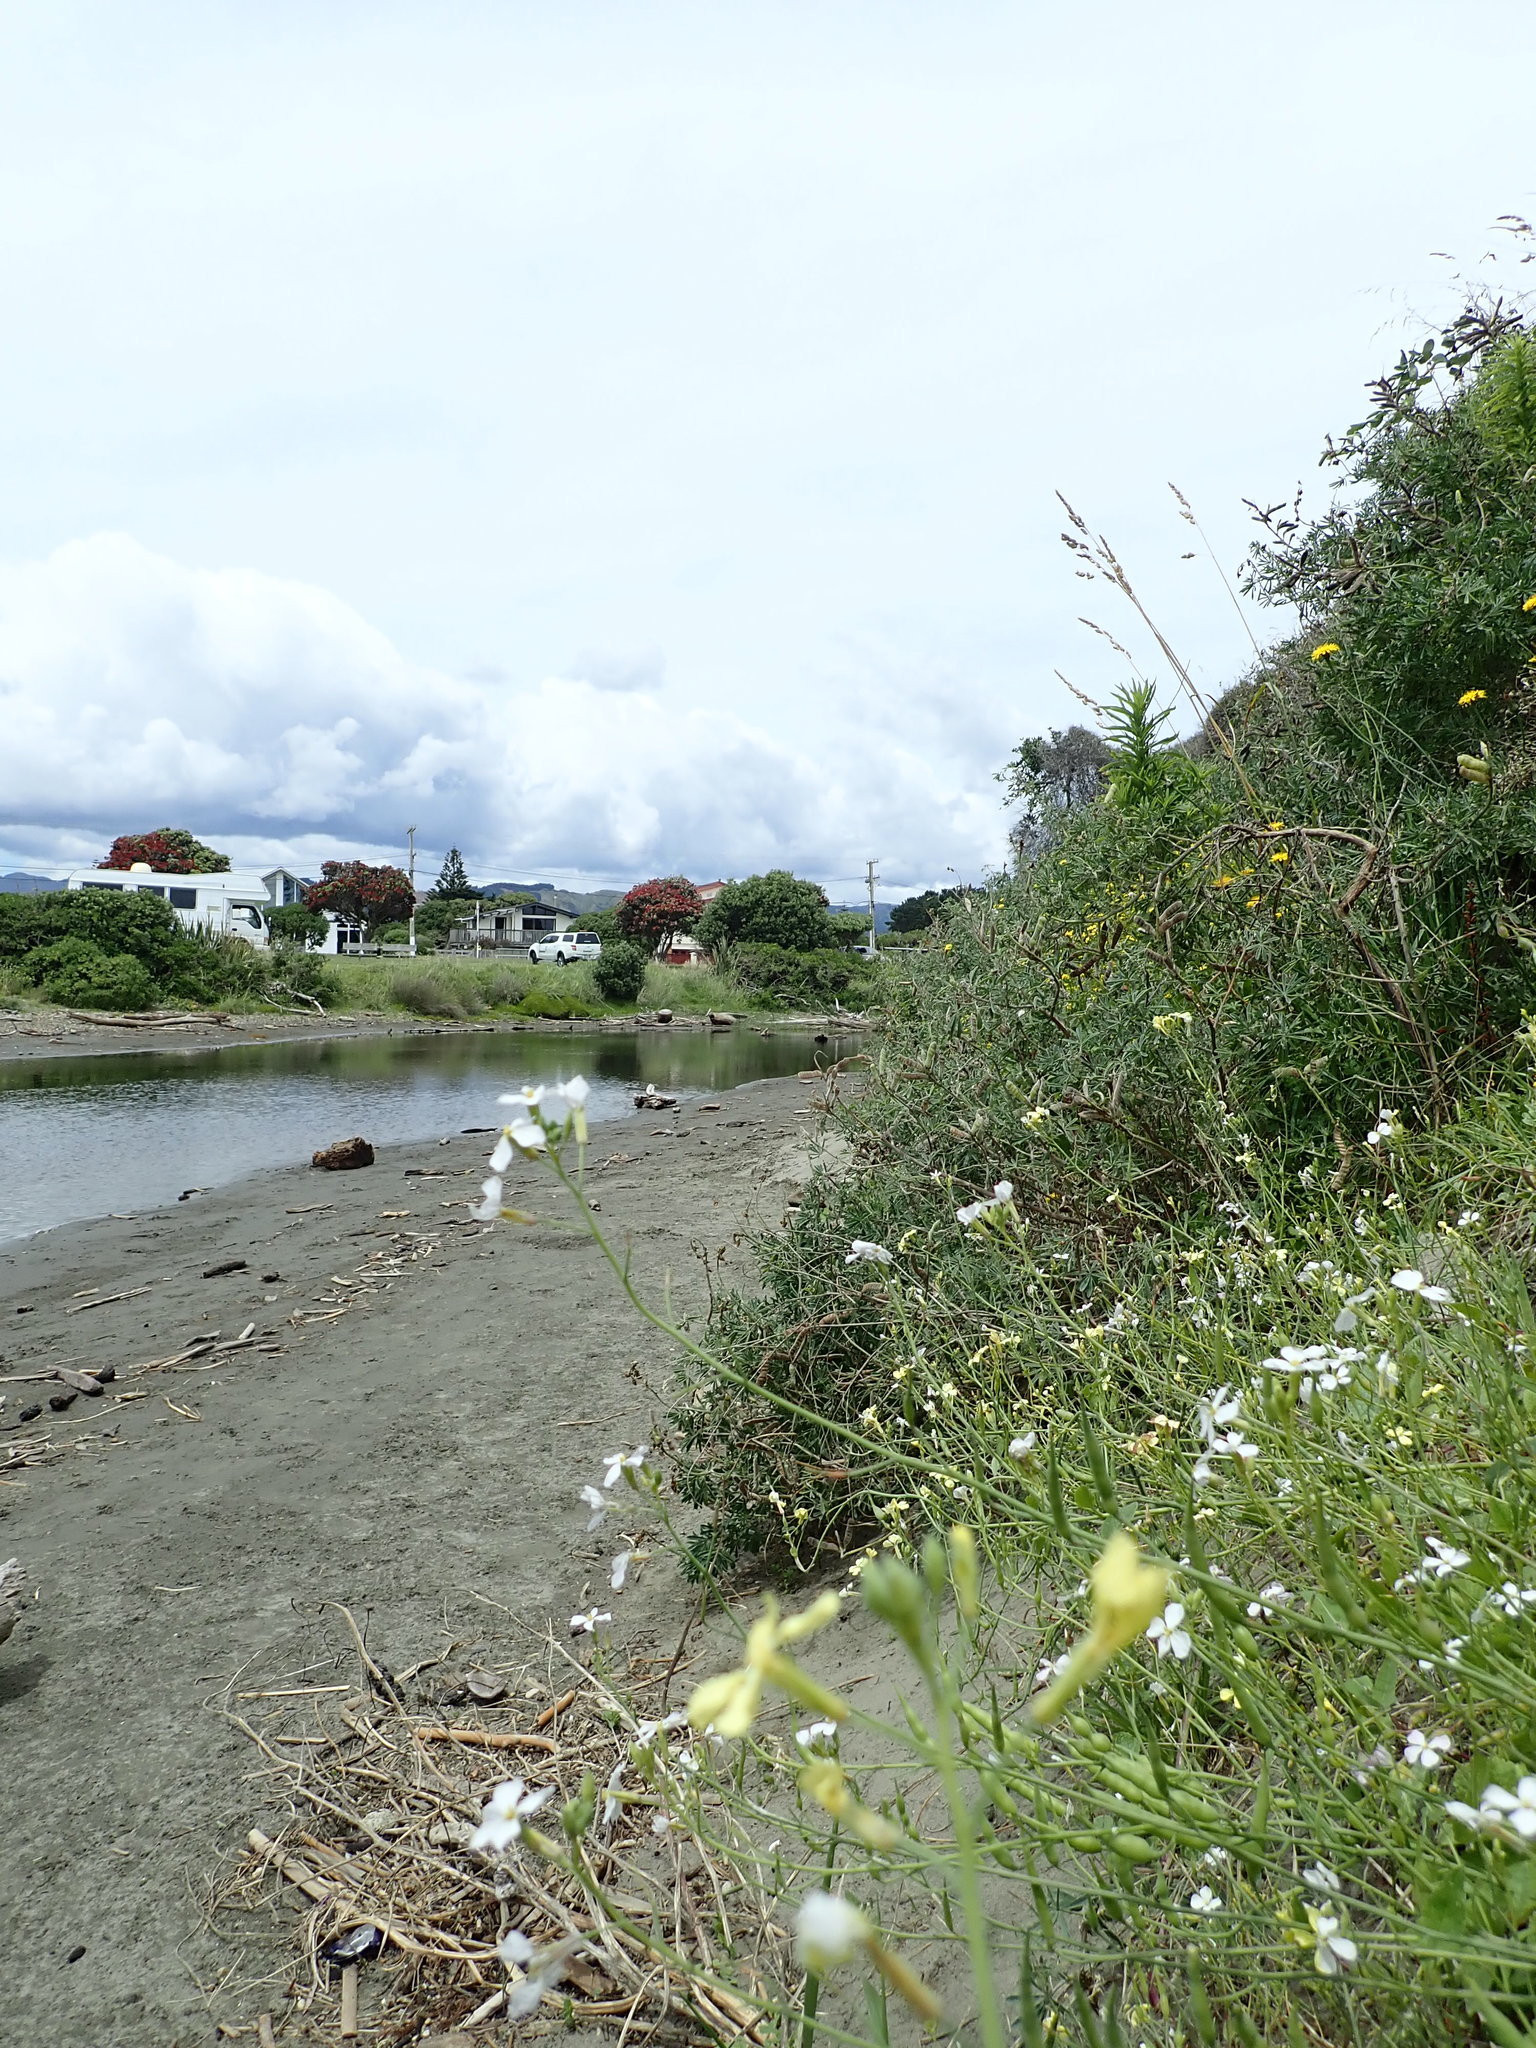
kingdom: Plantae
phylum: Tracheophyta
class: Magnoliopsida
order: Brassicales
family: Brassicaceae
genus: Raphanus
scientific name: Raphanus raphanistrum
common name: Wild radish
